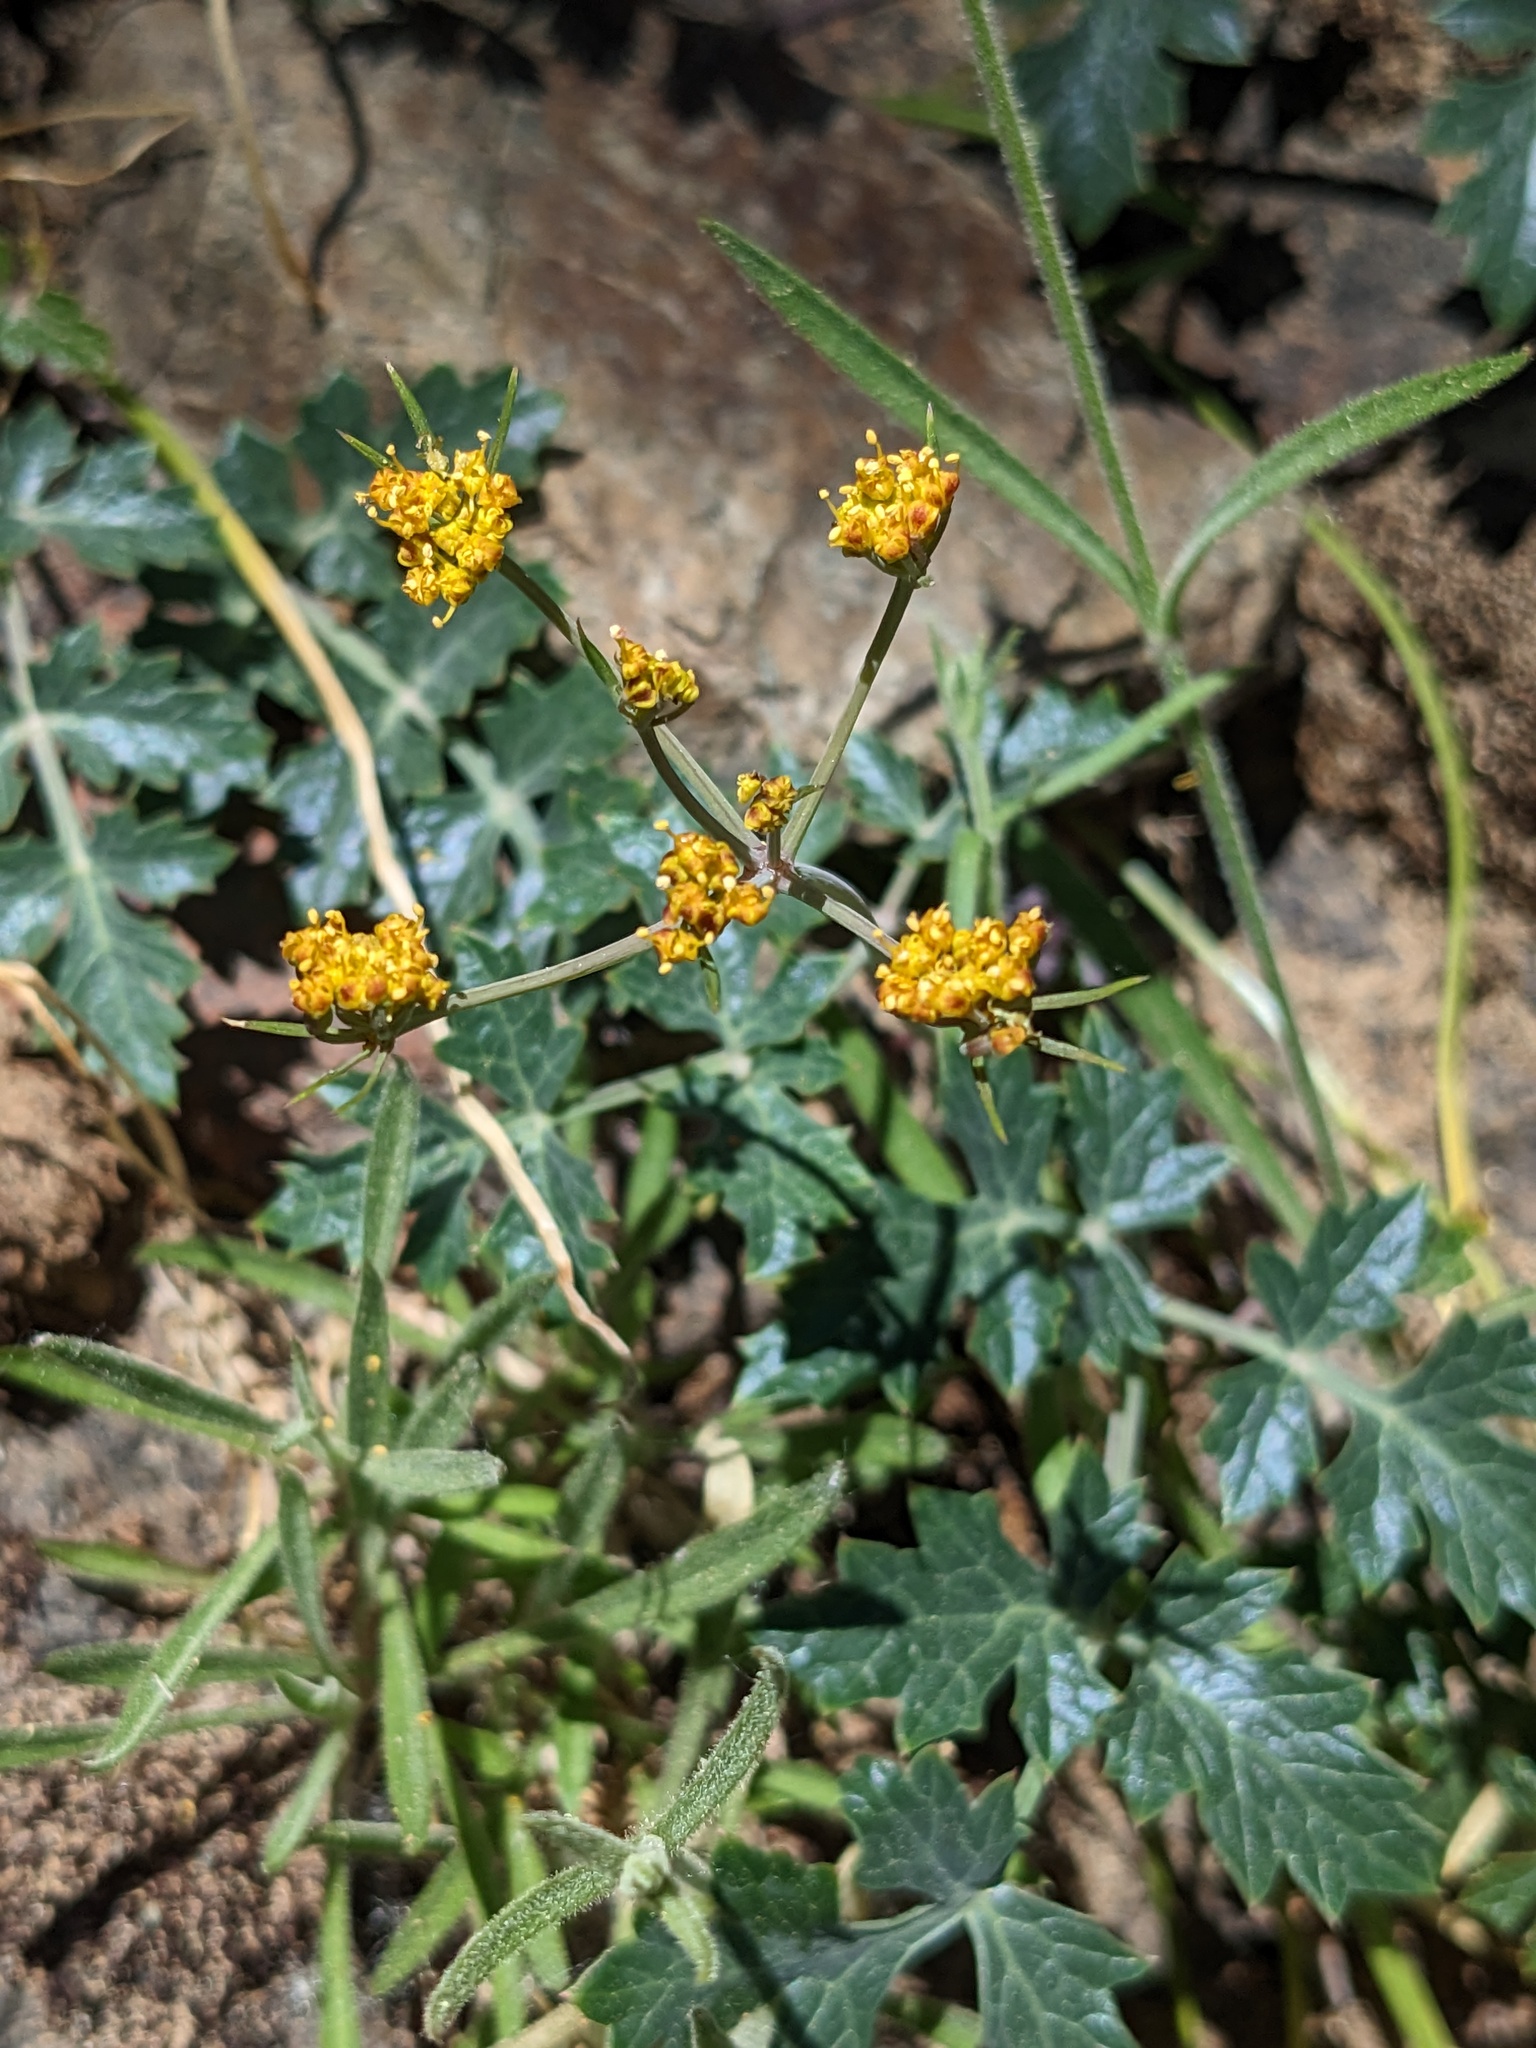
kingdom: Plantae
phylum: Tracheophyta
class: Magnoliopsida
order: Apiales
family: Apiaceae
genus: Lomatium
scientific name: Lomatium parvifolium
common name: Small-leaf lomatium
